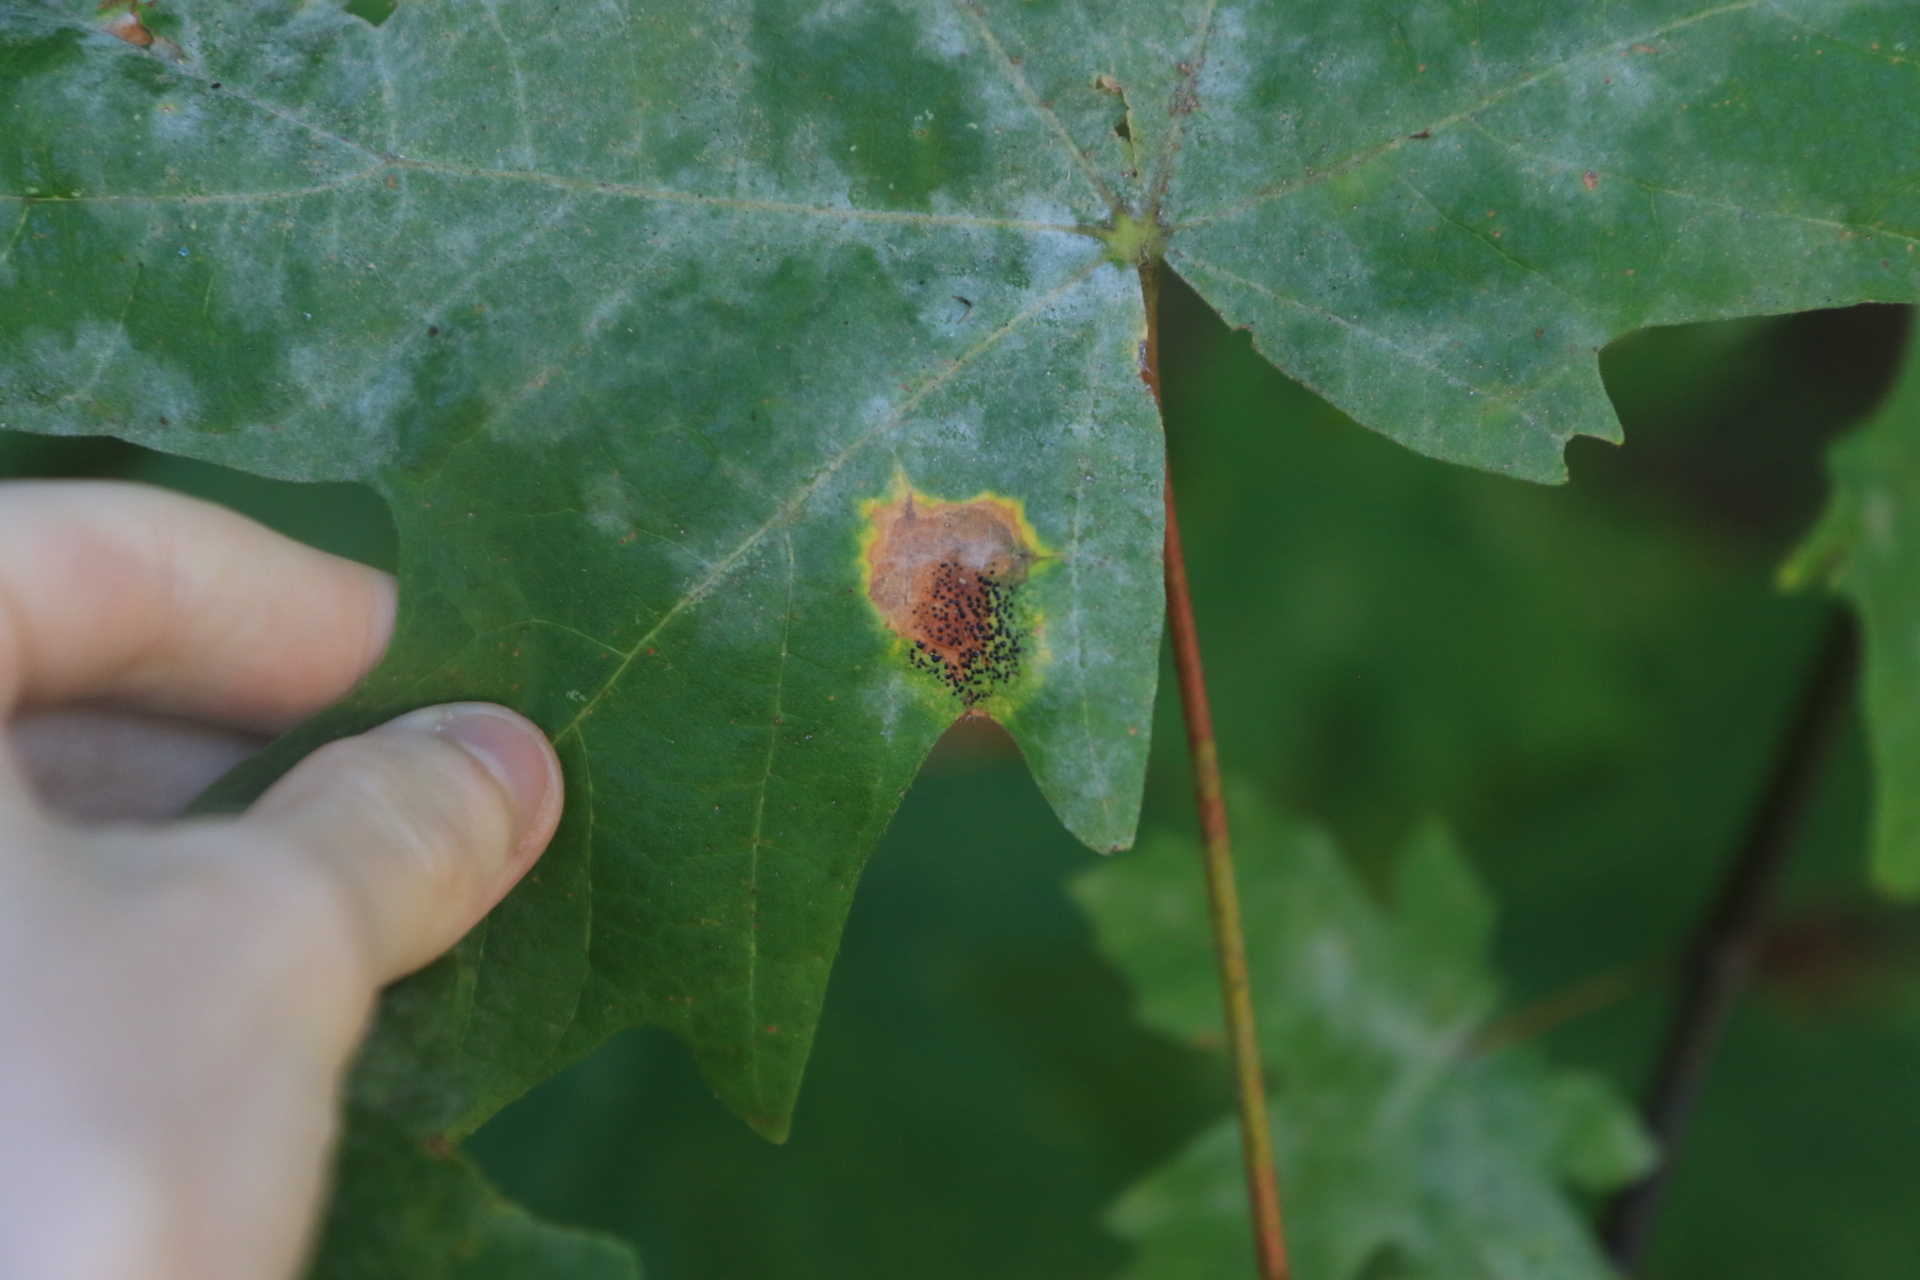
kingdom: Fungi
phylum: Ascomycota
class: Leotiomycetes
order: Rhytismatales
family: Rhytismataceae
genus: Rhytisma
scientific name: Rhytisma punctatum
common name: Speckled tar spot
